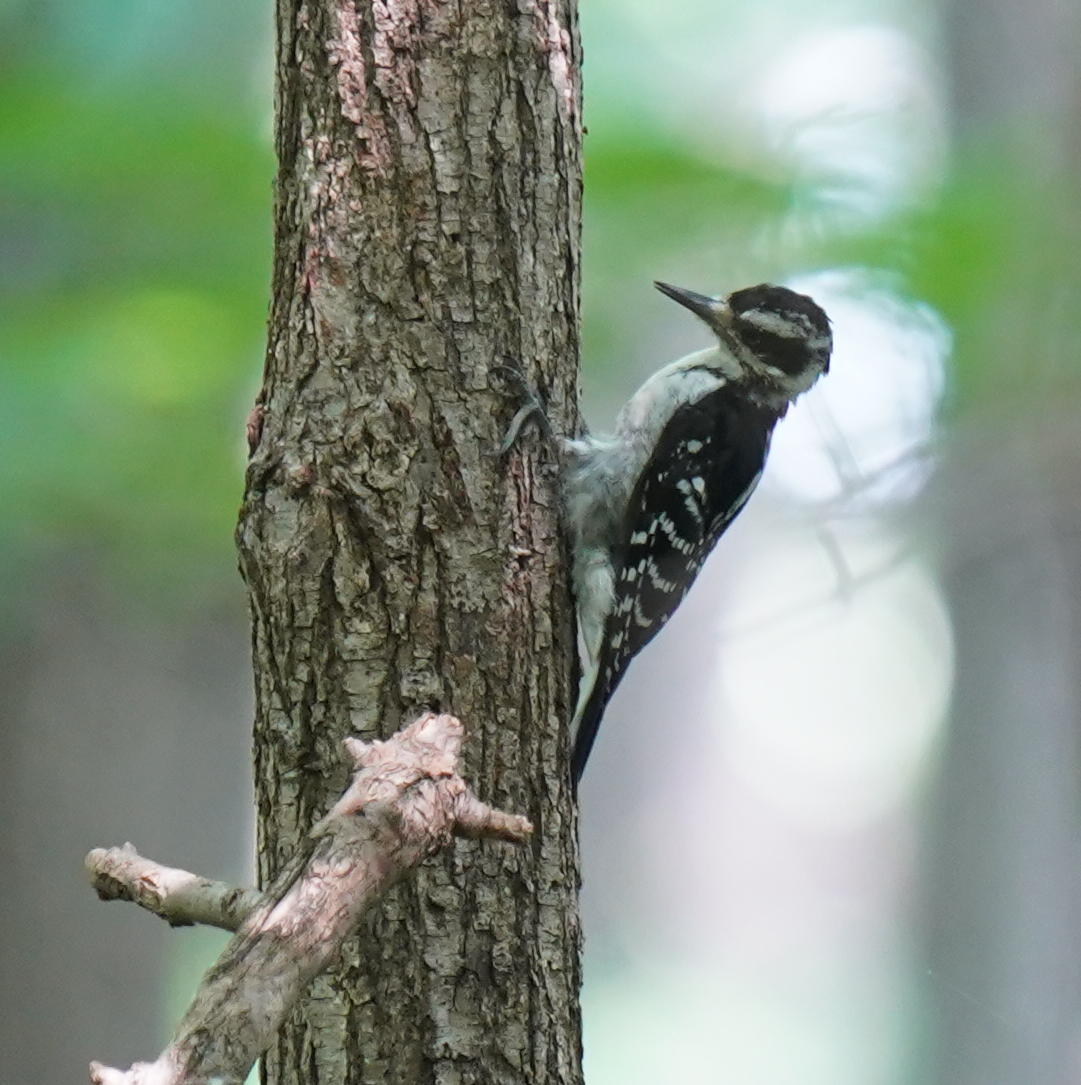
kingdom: Animalia
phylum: Chordata
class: Aves
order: Piciformes
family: Picidae
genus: Leuconotopicus
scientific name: Leuconotopicus villosus
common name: Hairy woodpecker
